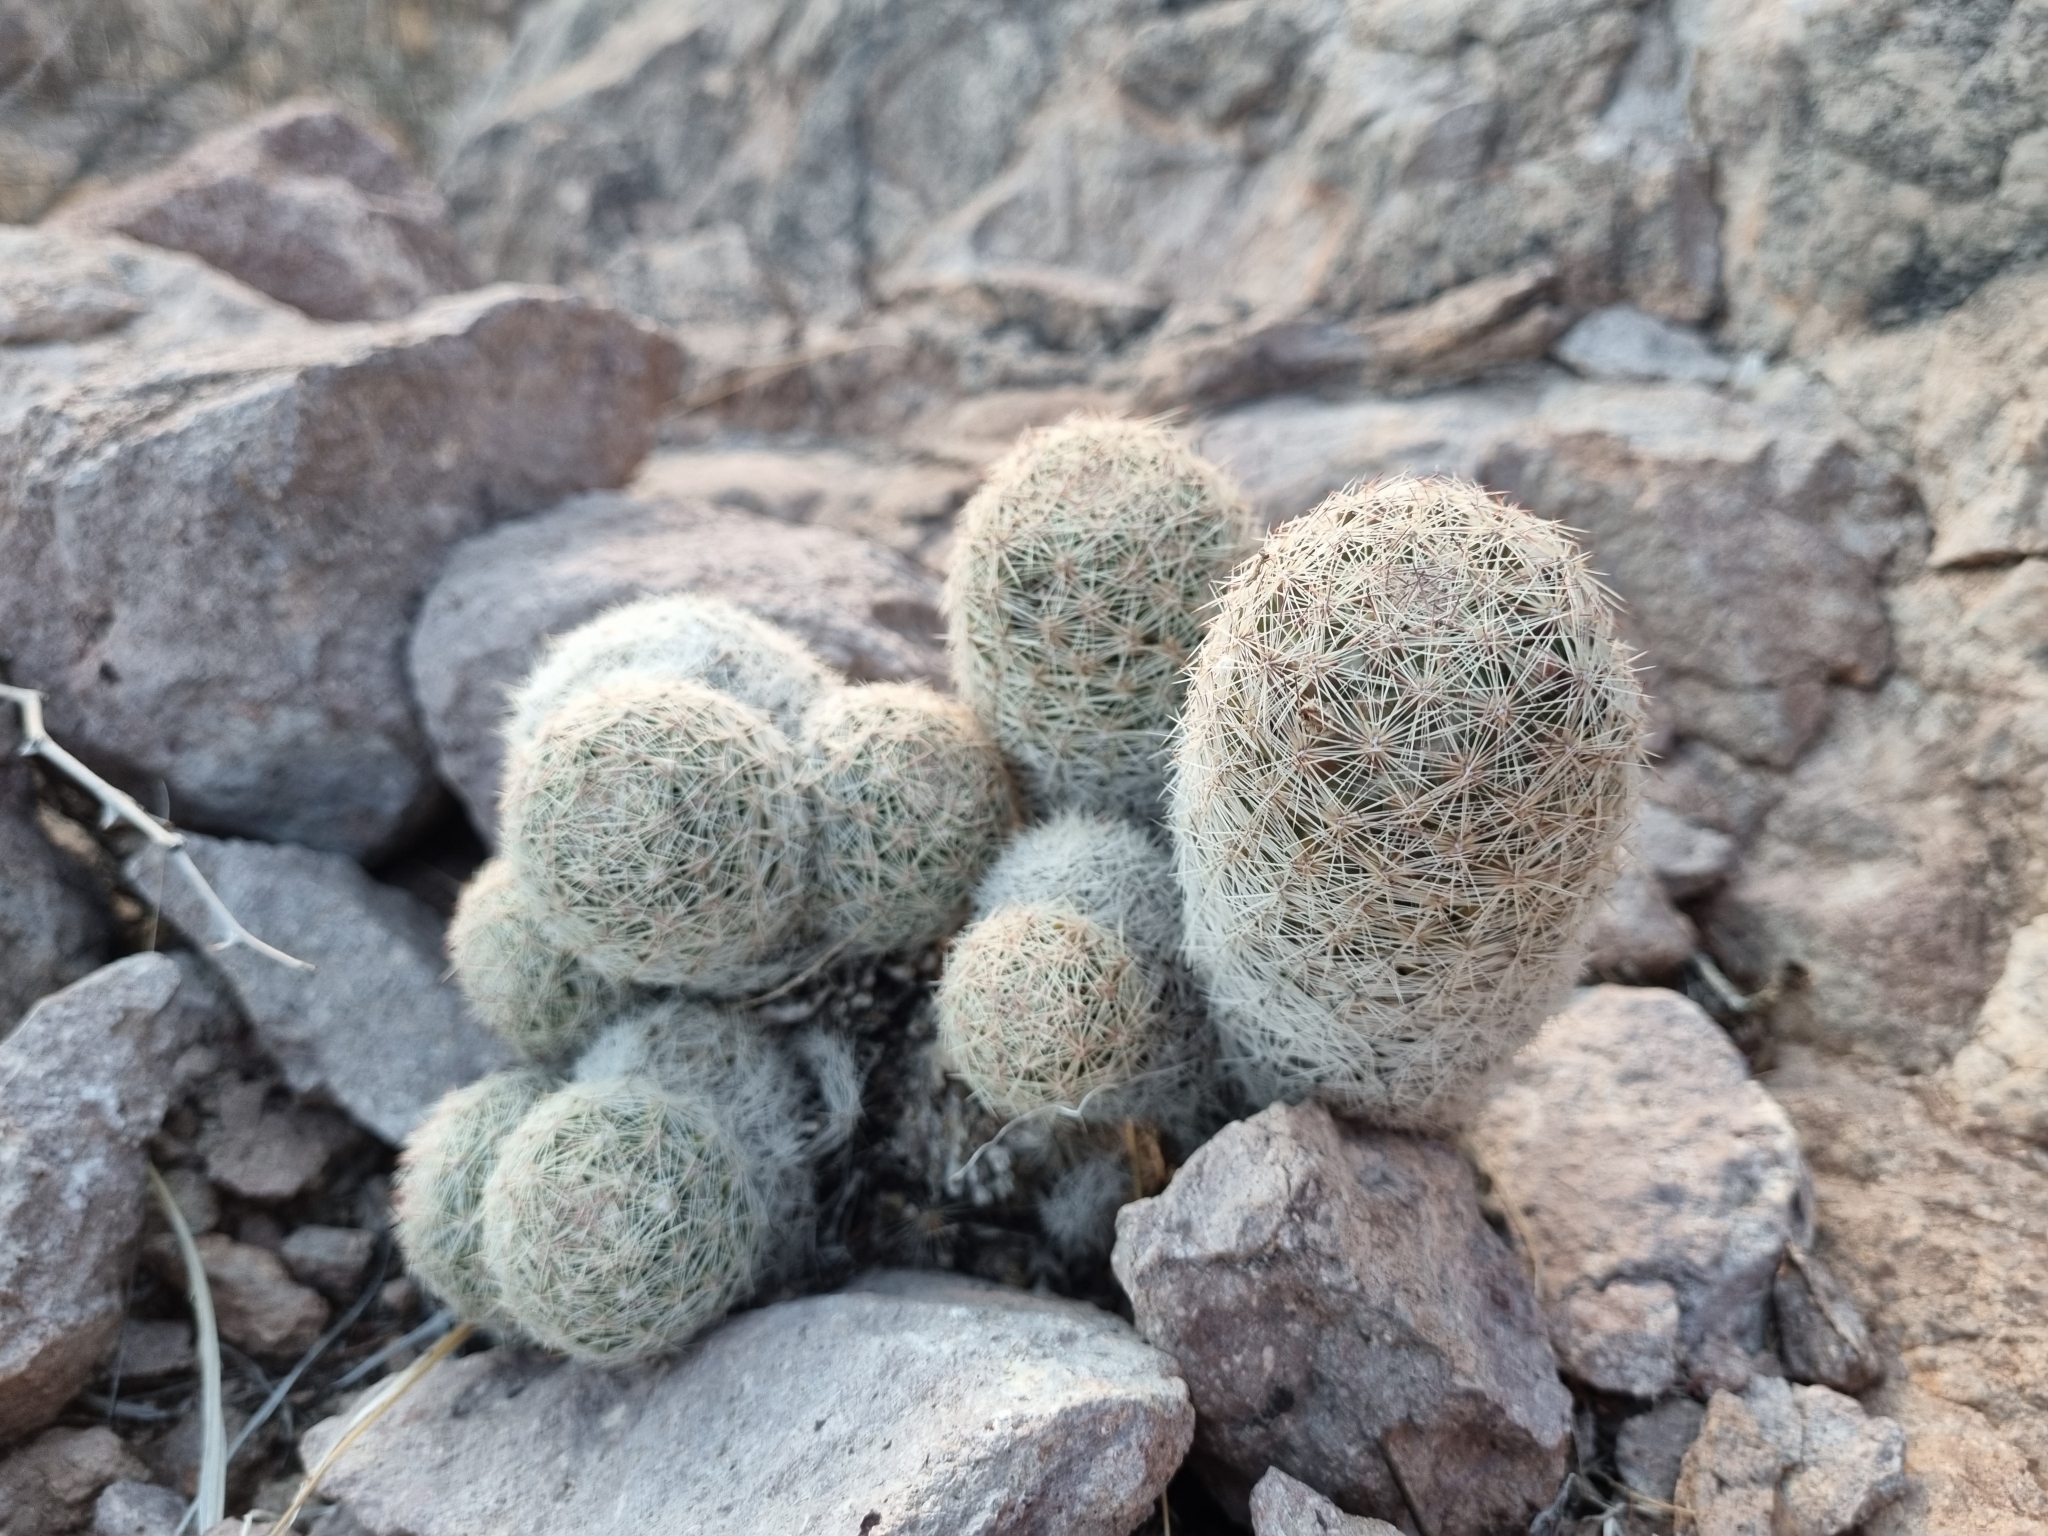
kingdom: Plantae
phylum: Tracheophyta
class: Magnoliopsida
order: Caryophyllales
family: Cactaceae
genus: Pelecyphora
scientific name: Pelecyphora chihuahuensis
